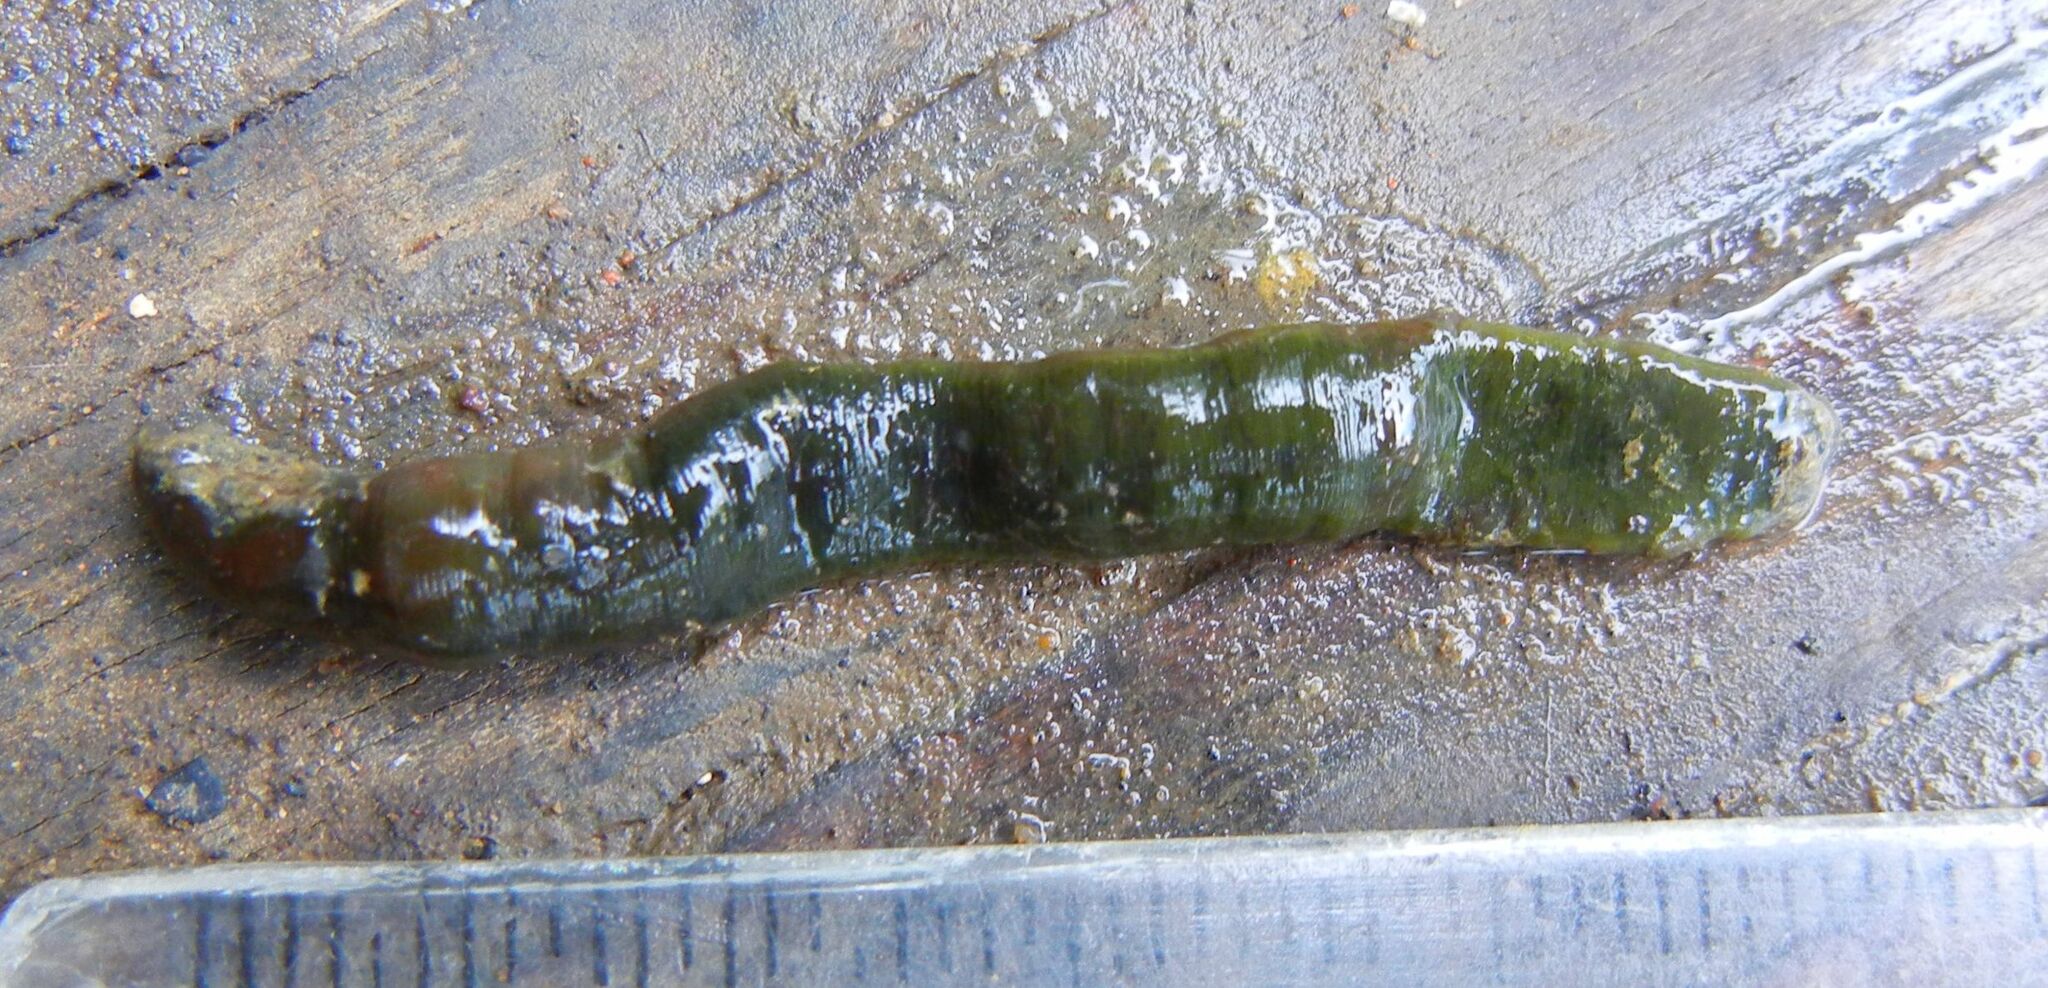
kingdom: Animalia
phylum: Annelida
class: Clitellata
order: Arhynchobdellida
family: Erpobdellidae
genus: Trocheta
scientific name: Trocheta subviridis
